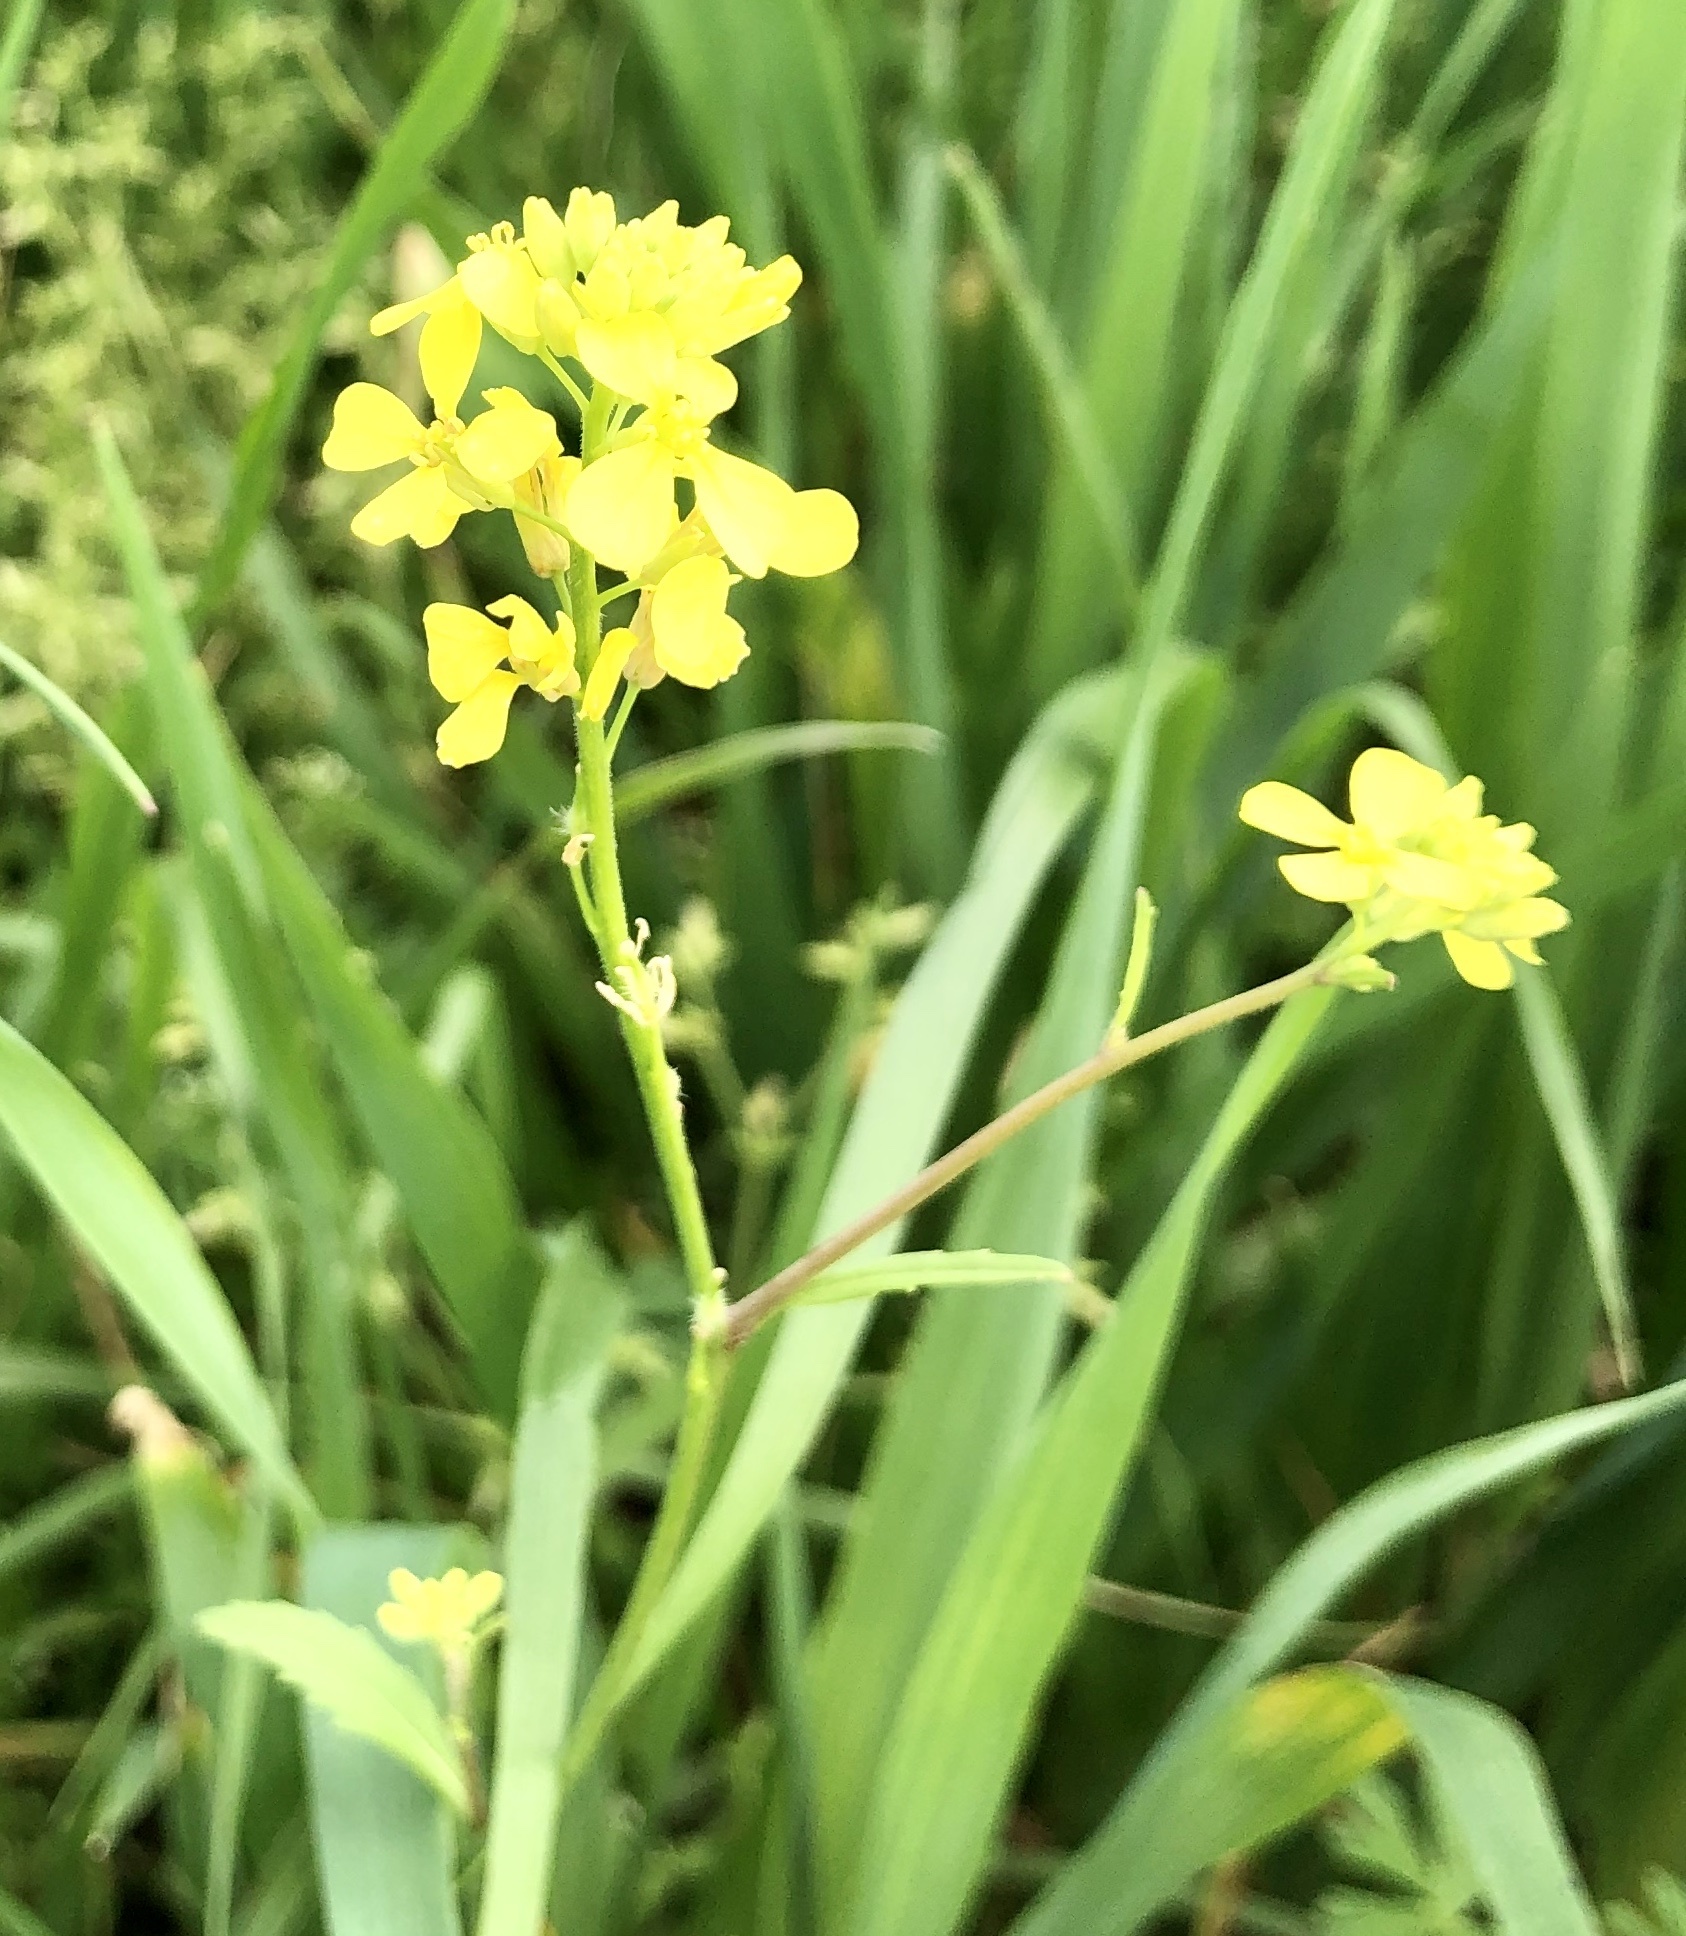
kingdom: Plantae
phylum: Tracheophyta
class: Magnoliopsida
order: Brassicales
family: Brassicaceae
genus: Rapistrum
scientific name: Rapistrum rugosum
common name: Annual bastardcabbage
